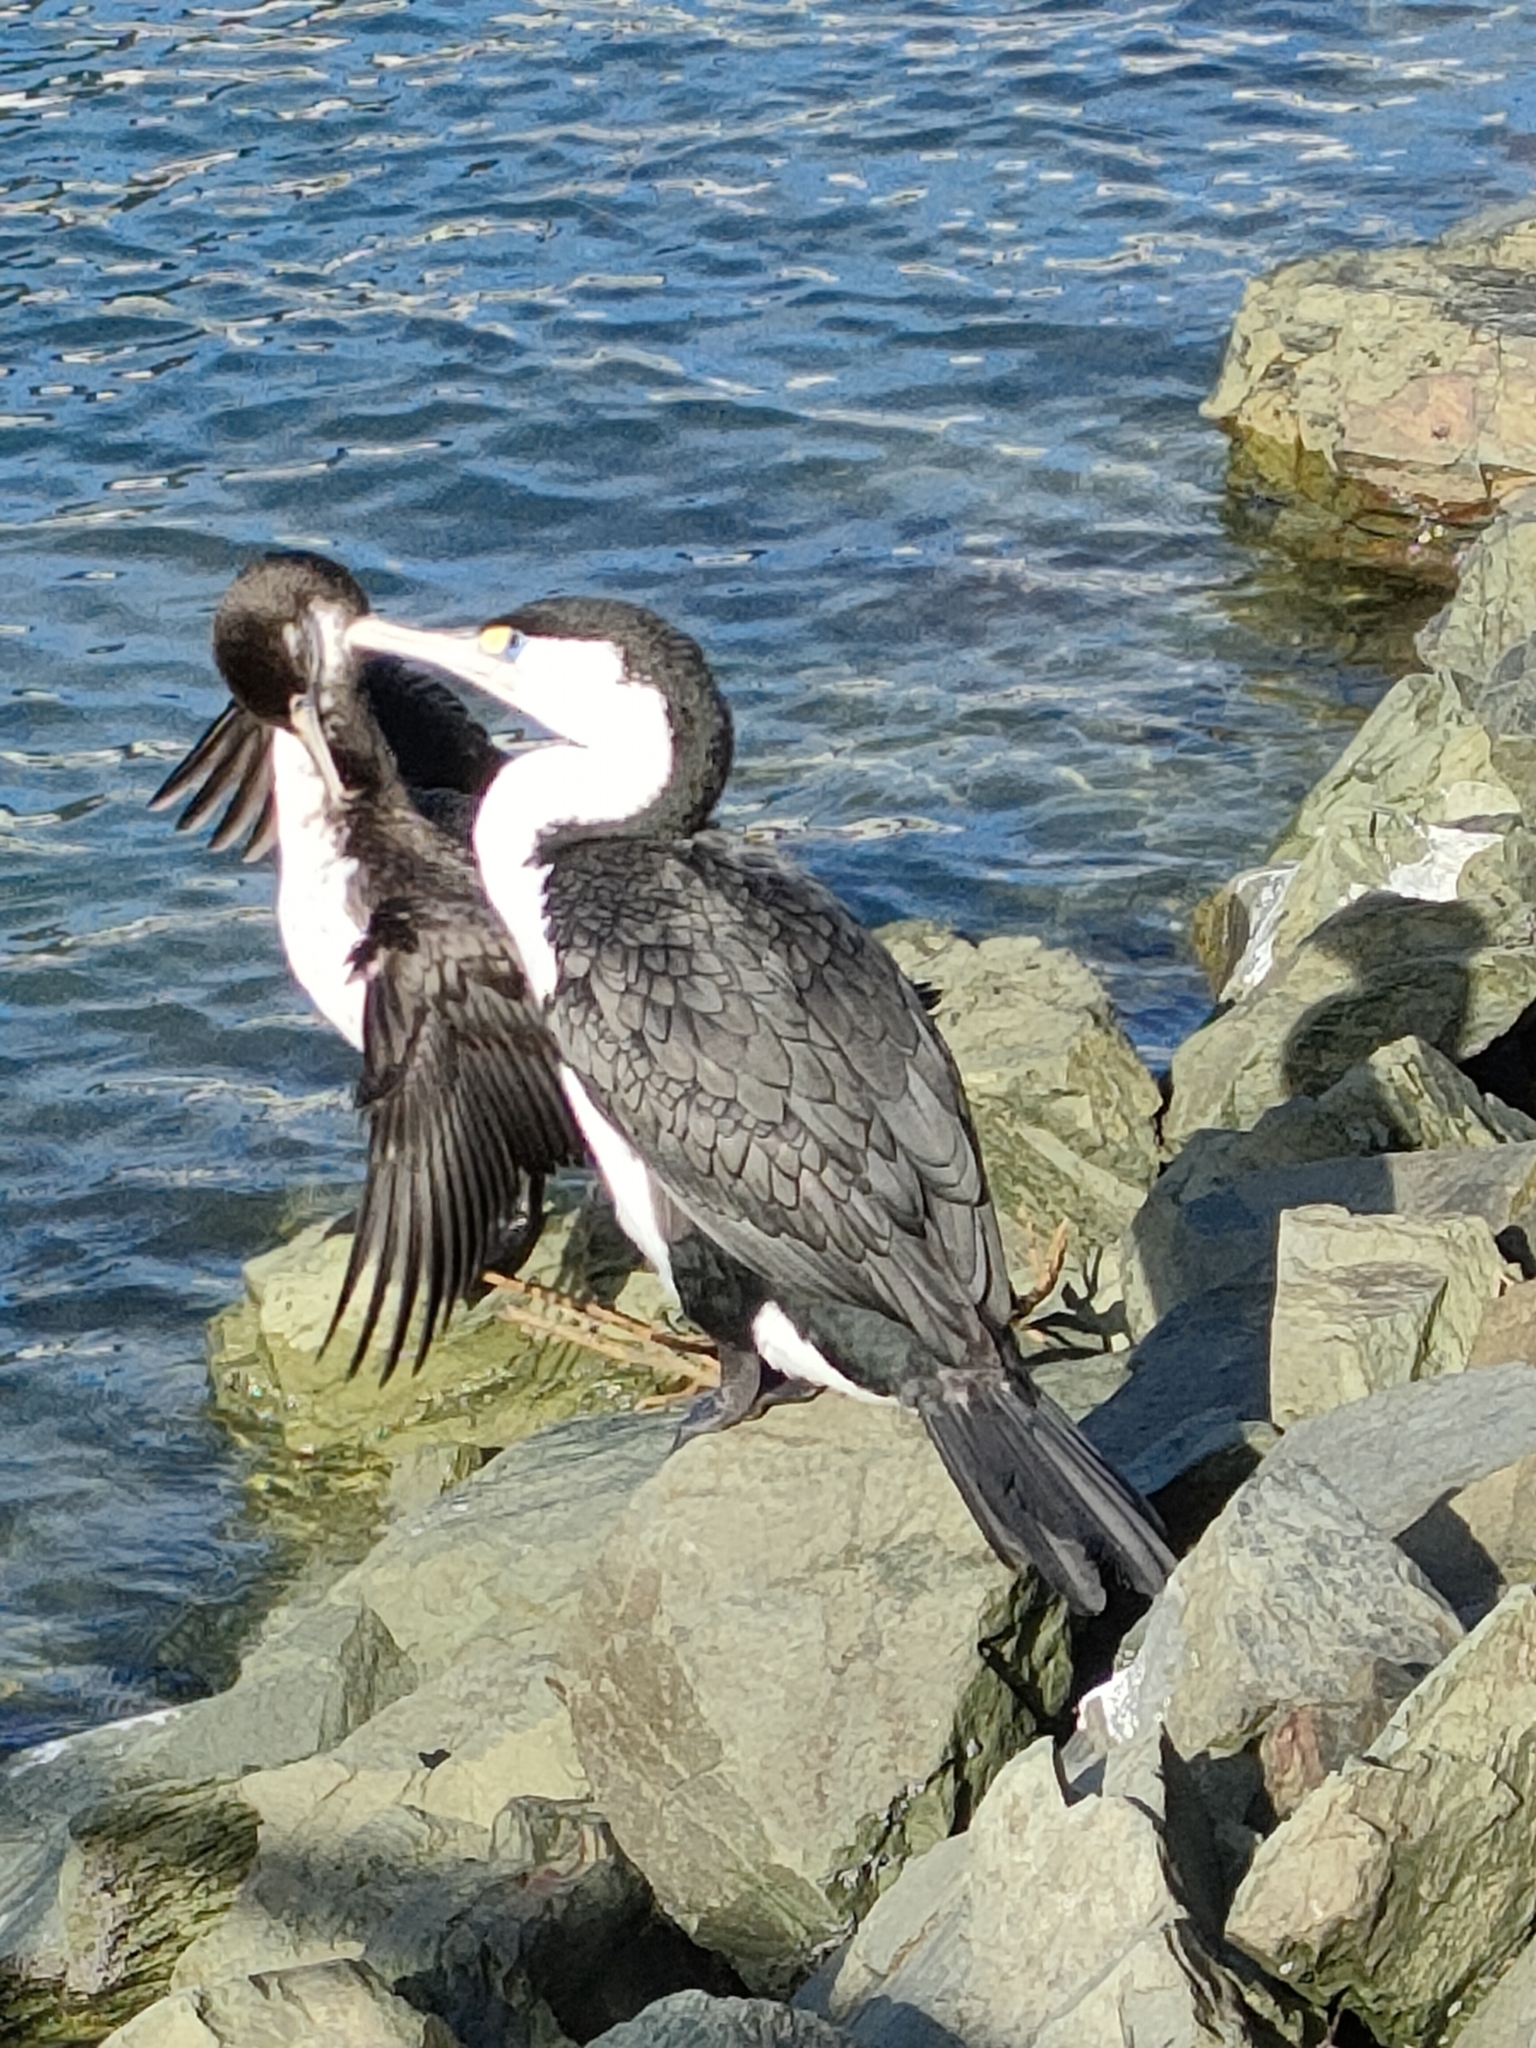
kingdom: Animalia
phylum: Chordata
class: Aves
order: Suliformes
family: Phalacrocoracidae
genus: Phalacrocorax
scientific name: Phalacrocorax varius
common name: Pied cormorant
